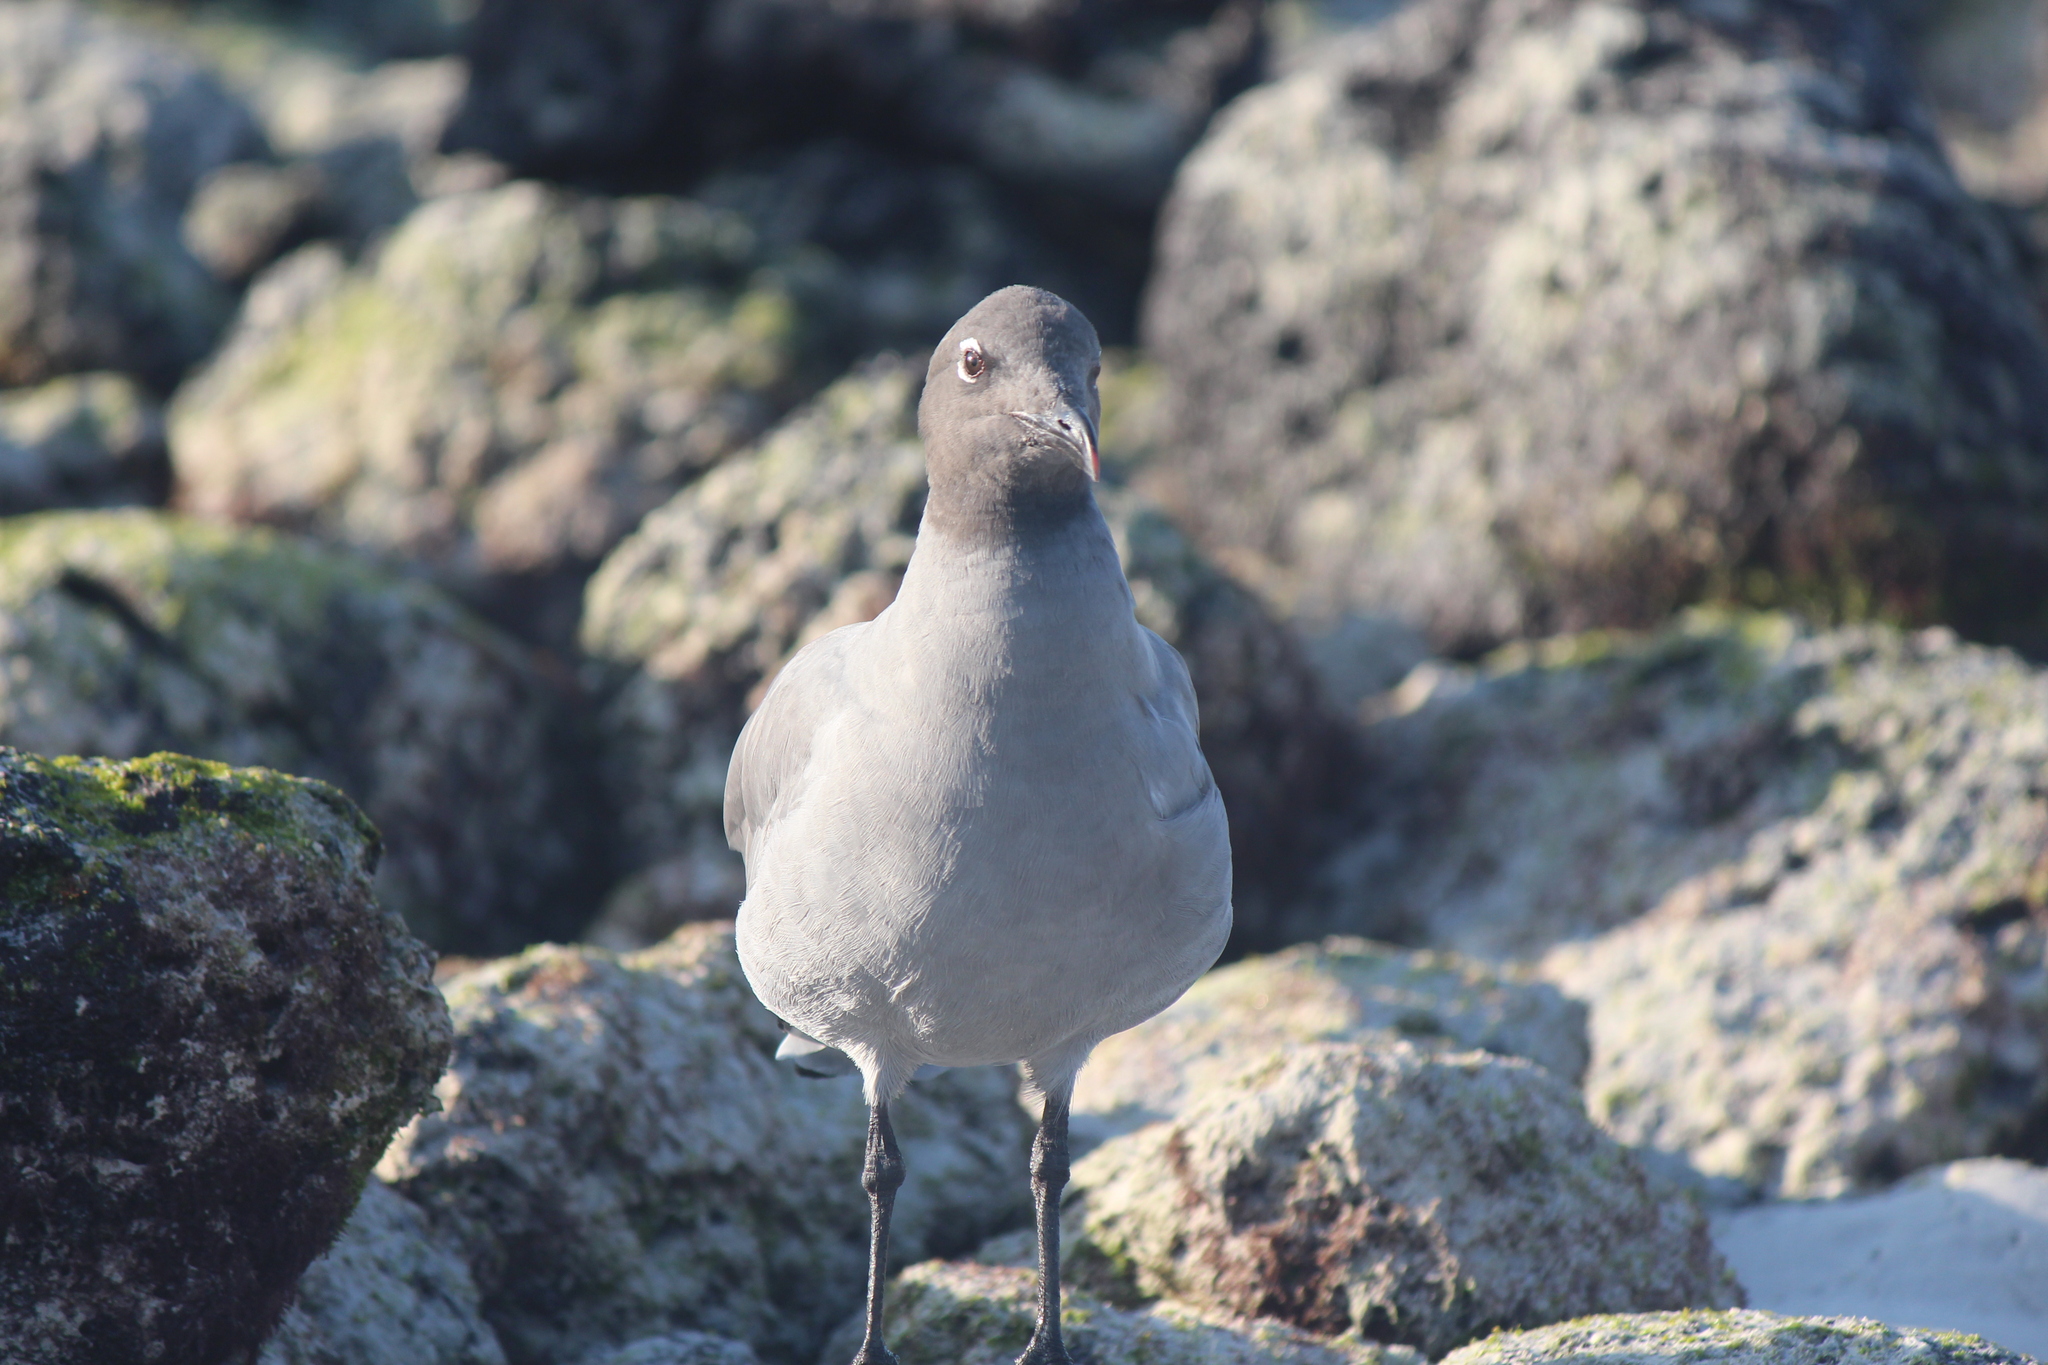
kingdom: Animalia
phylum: Chordata
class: Aves
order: Charadriiformes
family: Laridae
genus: Leucophaeus
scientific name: Leucophaeus fuliginosus
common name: Lava gull
